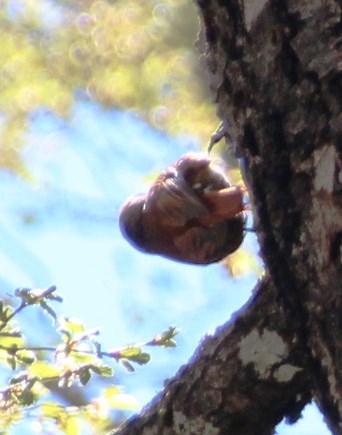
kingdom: Animalia
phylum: Chordata
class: Aves
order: Passeriformes
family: Furnariidae
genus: Pygarrhichas
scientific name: Pygarrhichas albogularis
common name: White-throated treerunner
